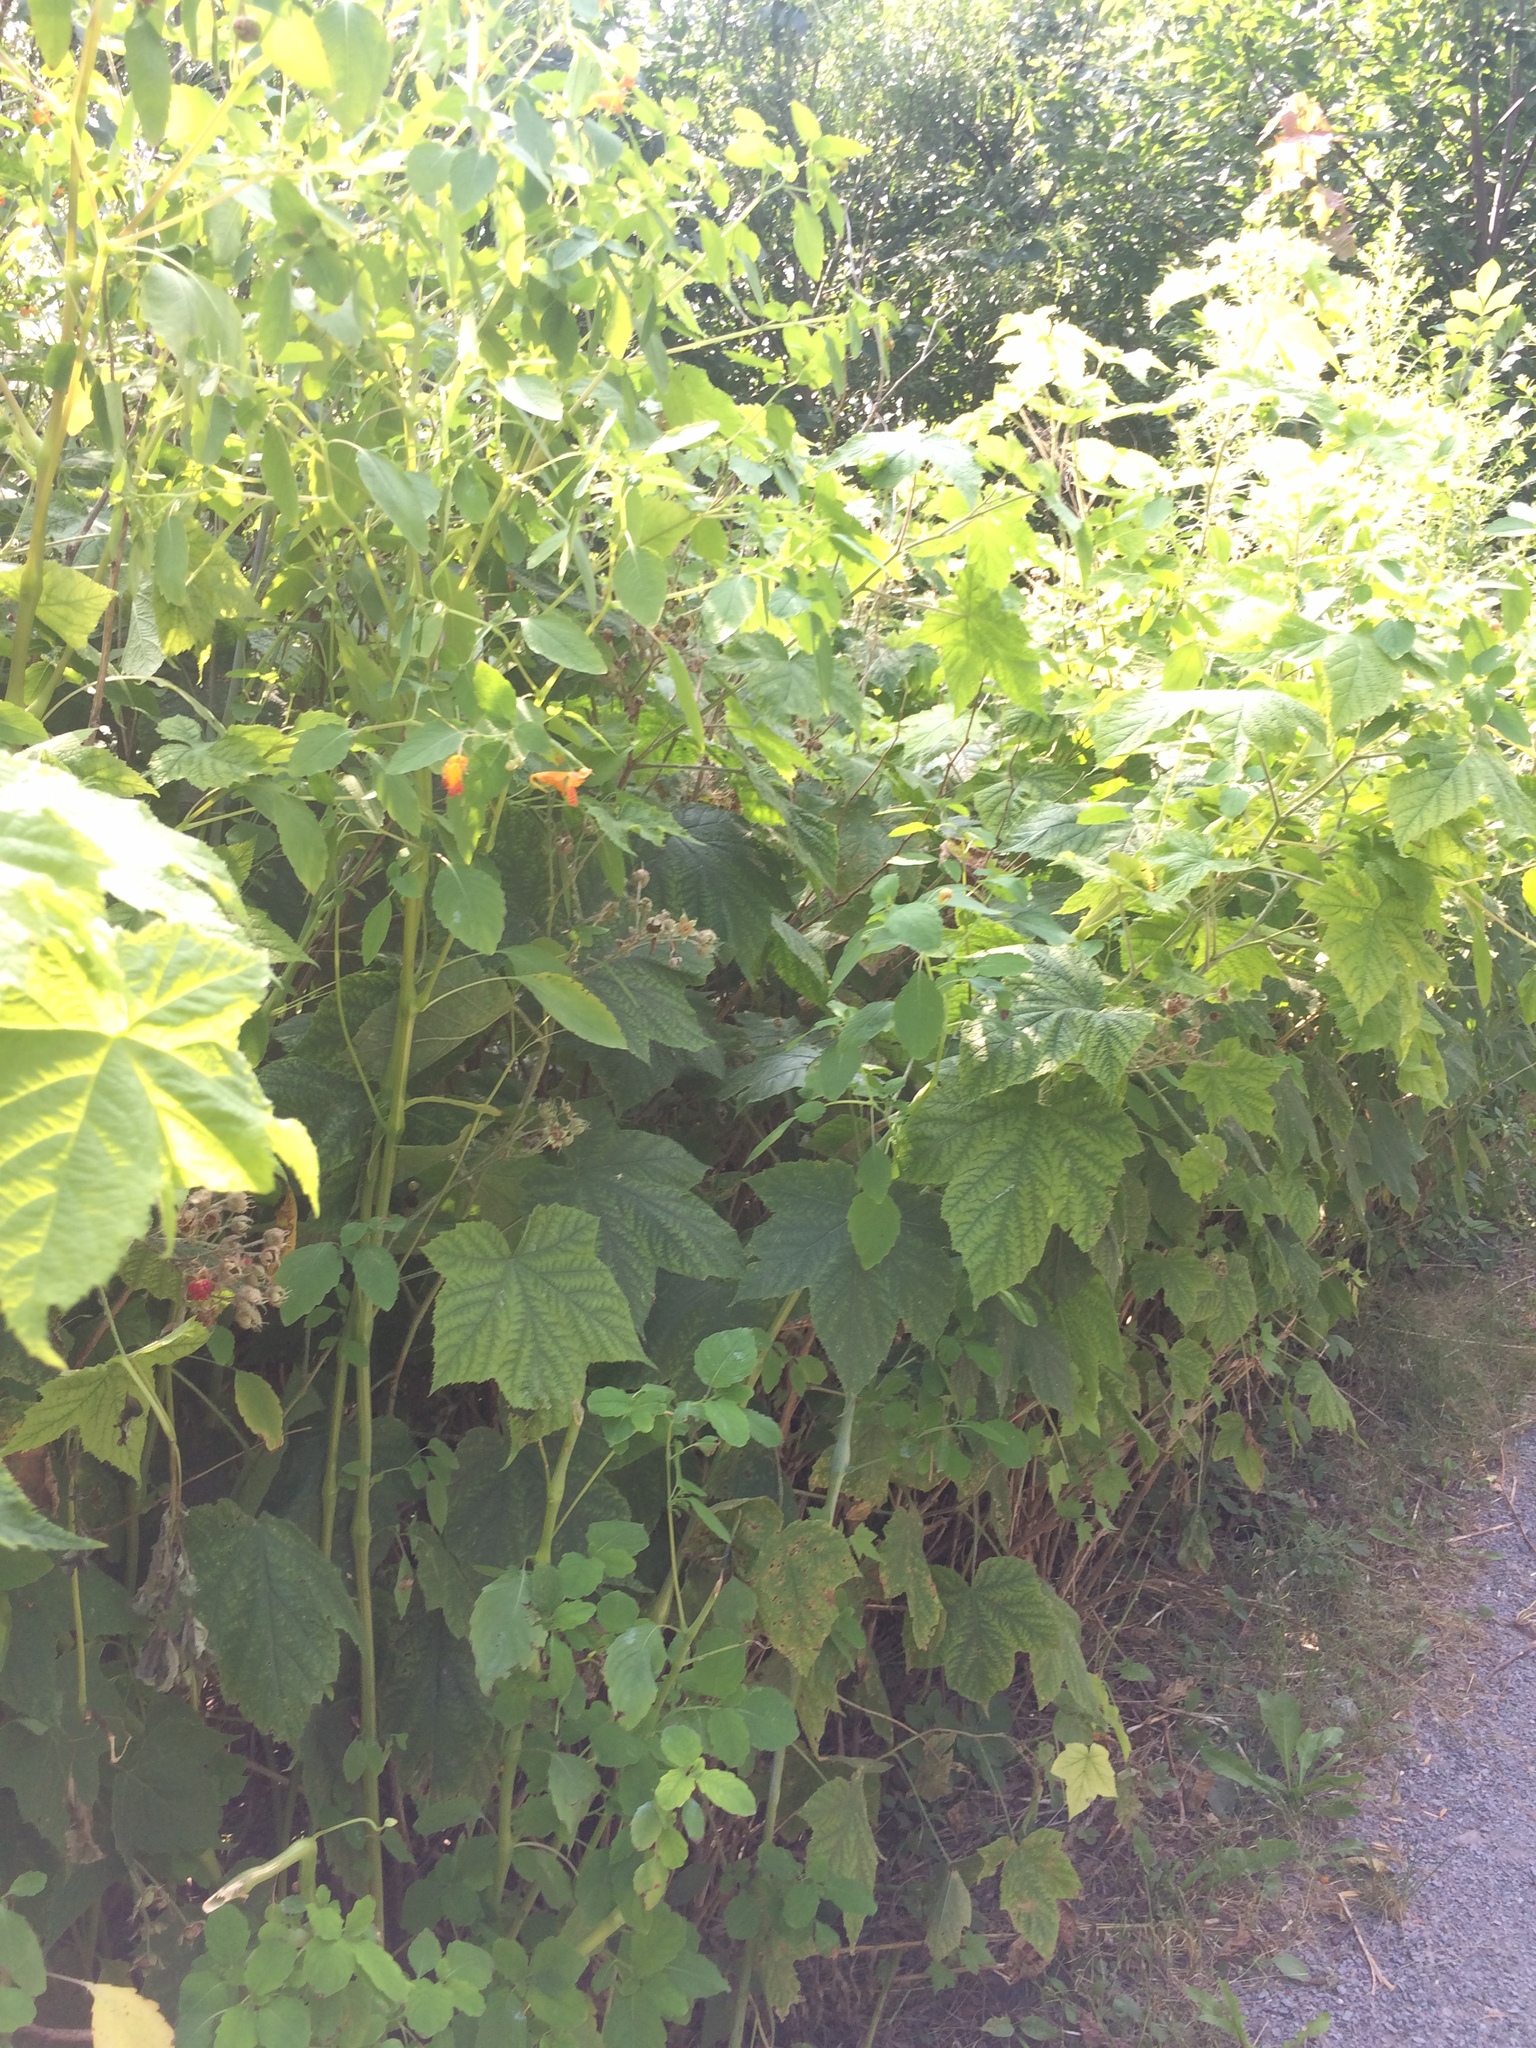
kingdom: Plantae
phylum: Tracheophyta
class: Magnoliopsida
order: Ericales
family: Balsaminaceae
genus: Impatiens
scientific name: Impatiens capensis
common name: Orange balsam
